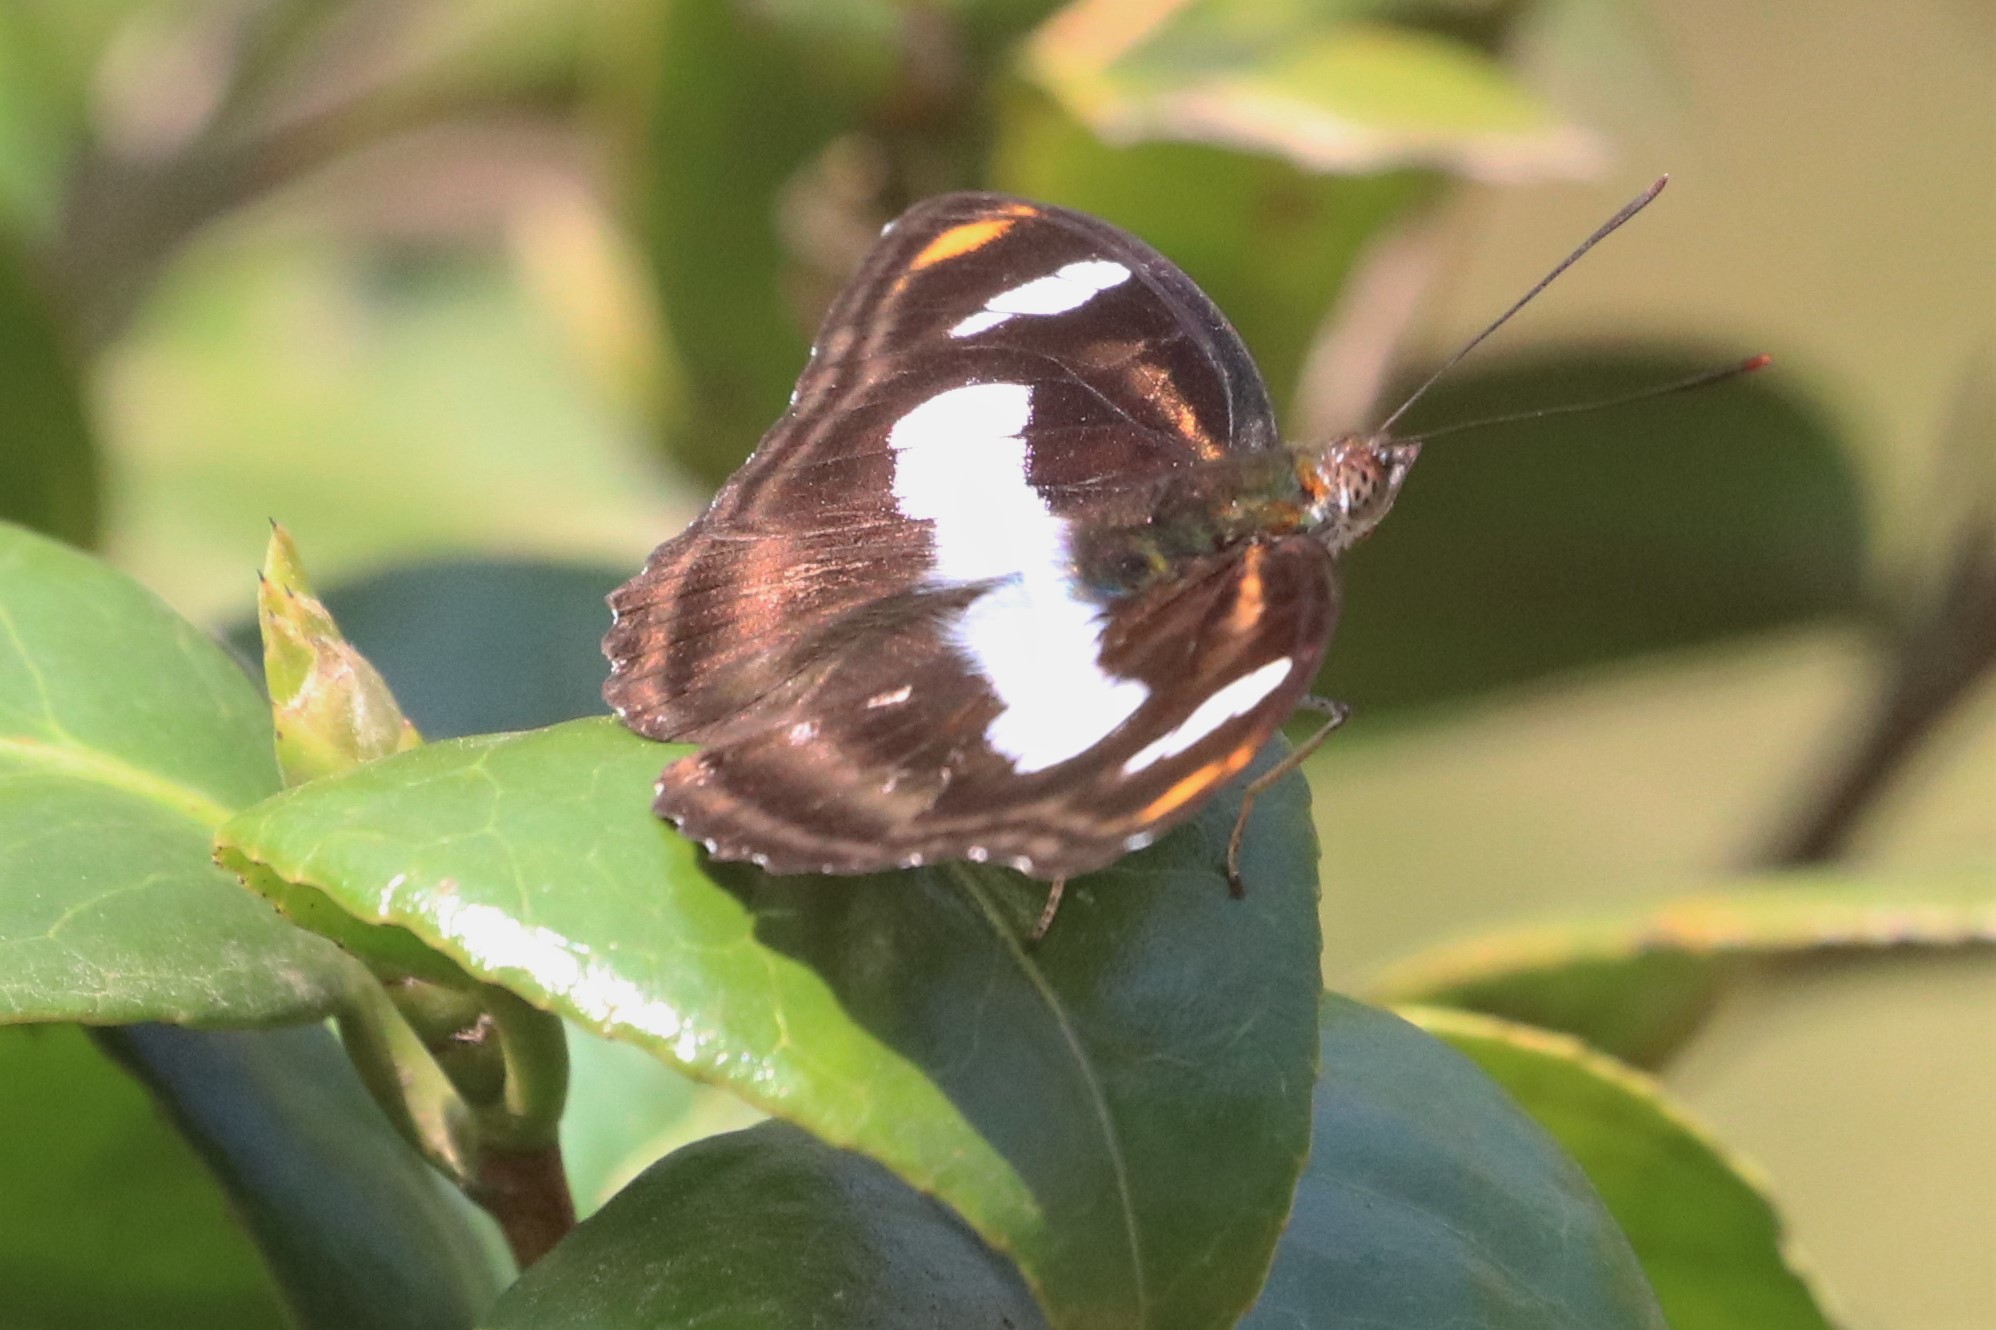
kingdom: Animalia
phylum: Arthropoda
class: Insecta
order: Lepidoptera
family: Nymphalidae
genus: Pantoporia
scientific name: Pantoporia cama
